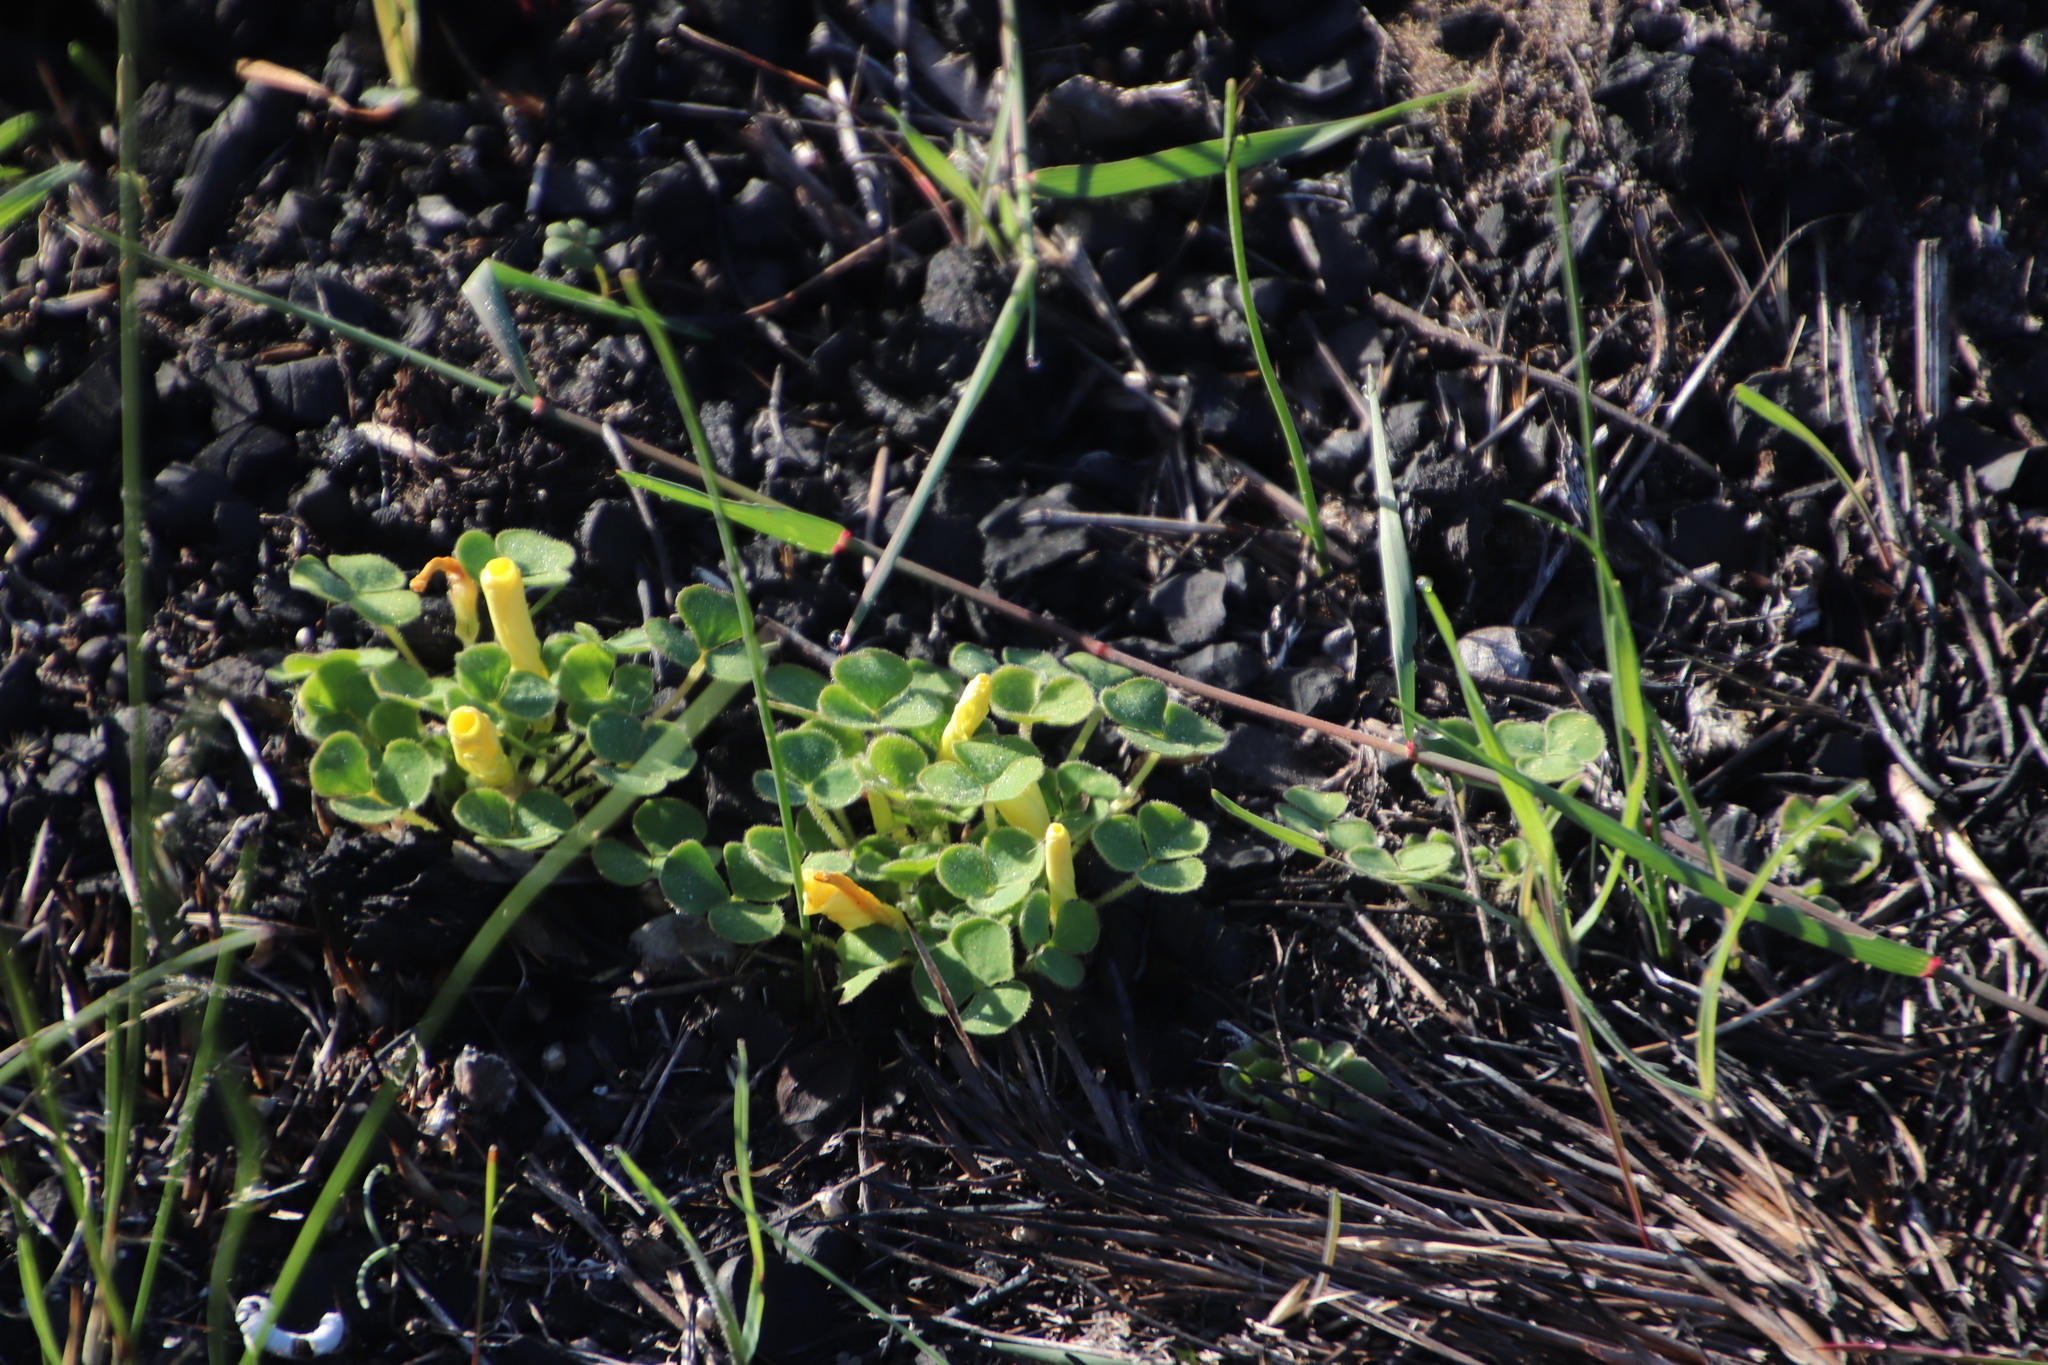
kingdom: Plantae
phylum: Tracheophyta
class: Magnoliopsida
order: Oxalidales
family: Oxalidaceae
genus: Oxalis
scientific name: Oxalis luteola
